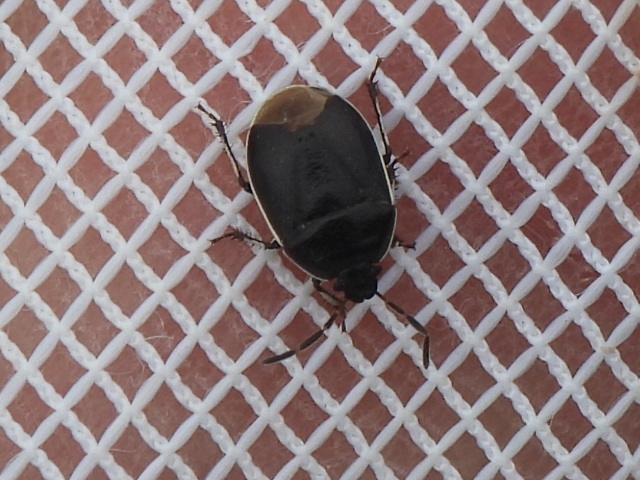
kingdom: Animalia
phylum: Arthropoda
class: Insecta
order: Hemiptera
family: Cydnidae
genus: Sehirus
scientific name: Sehirus cinctus
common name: White-margined burrower bug
